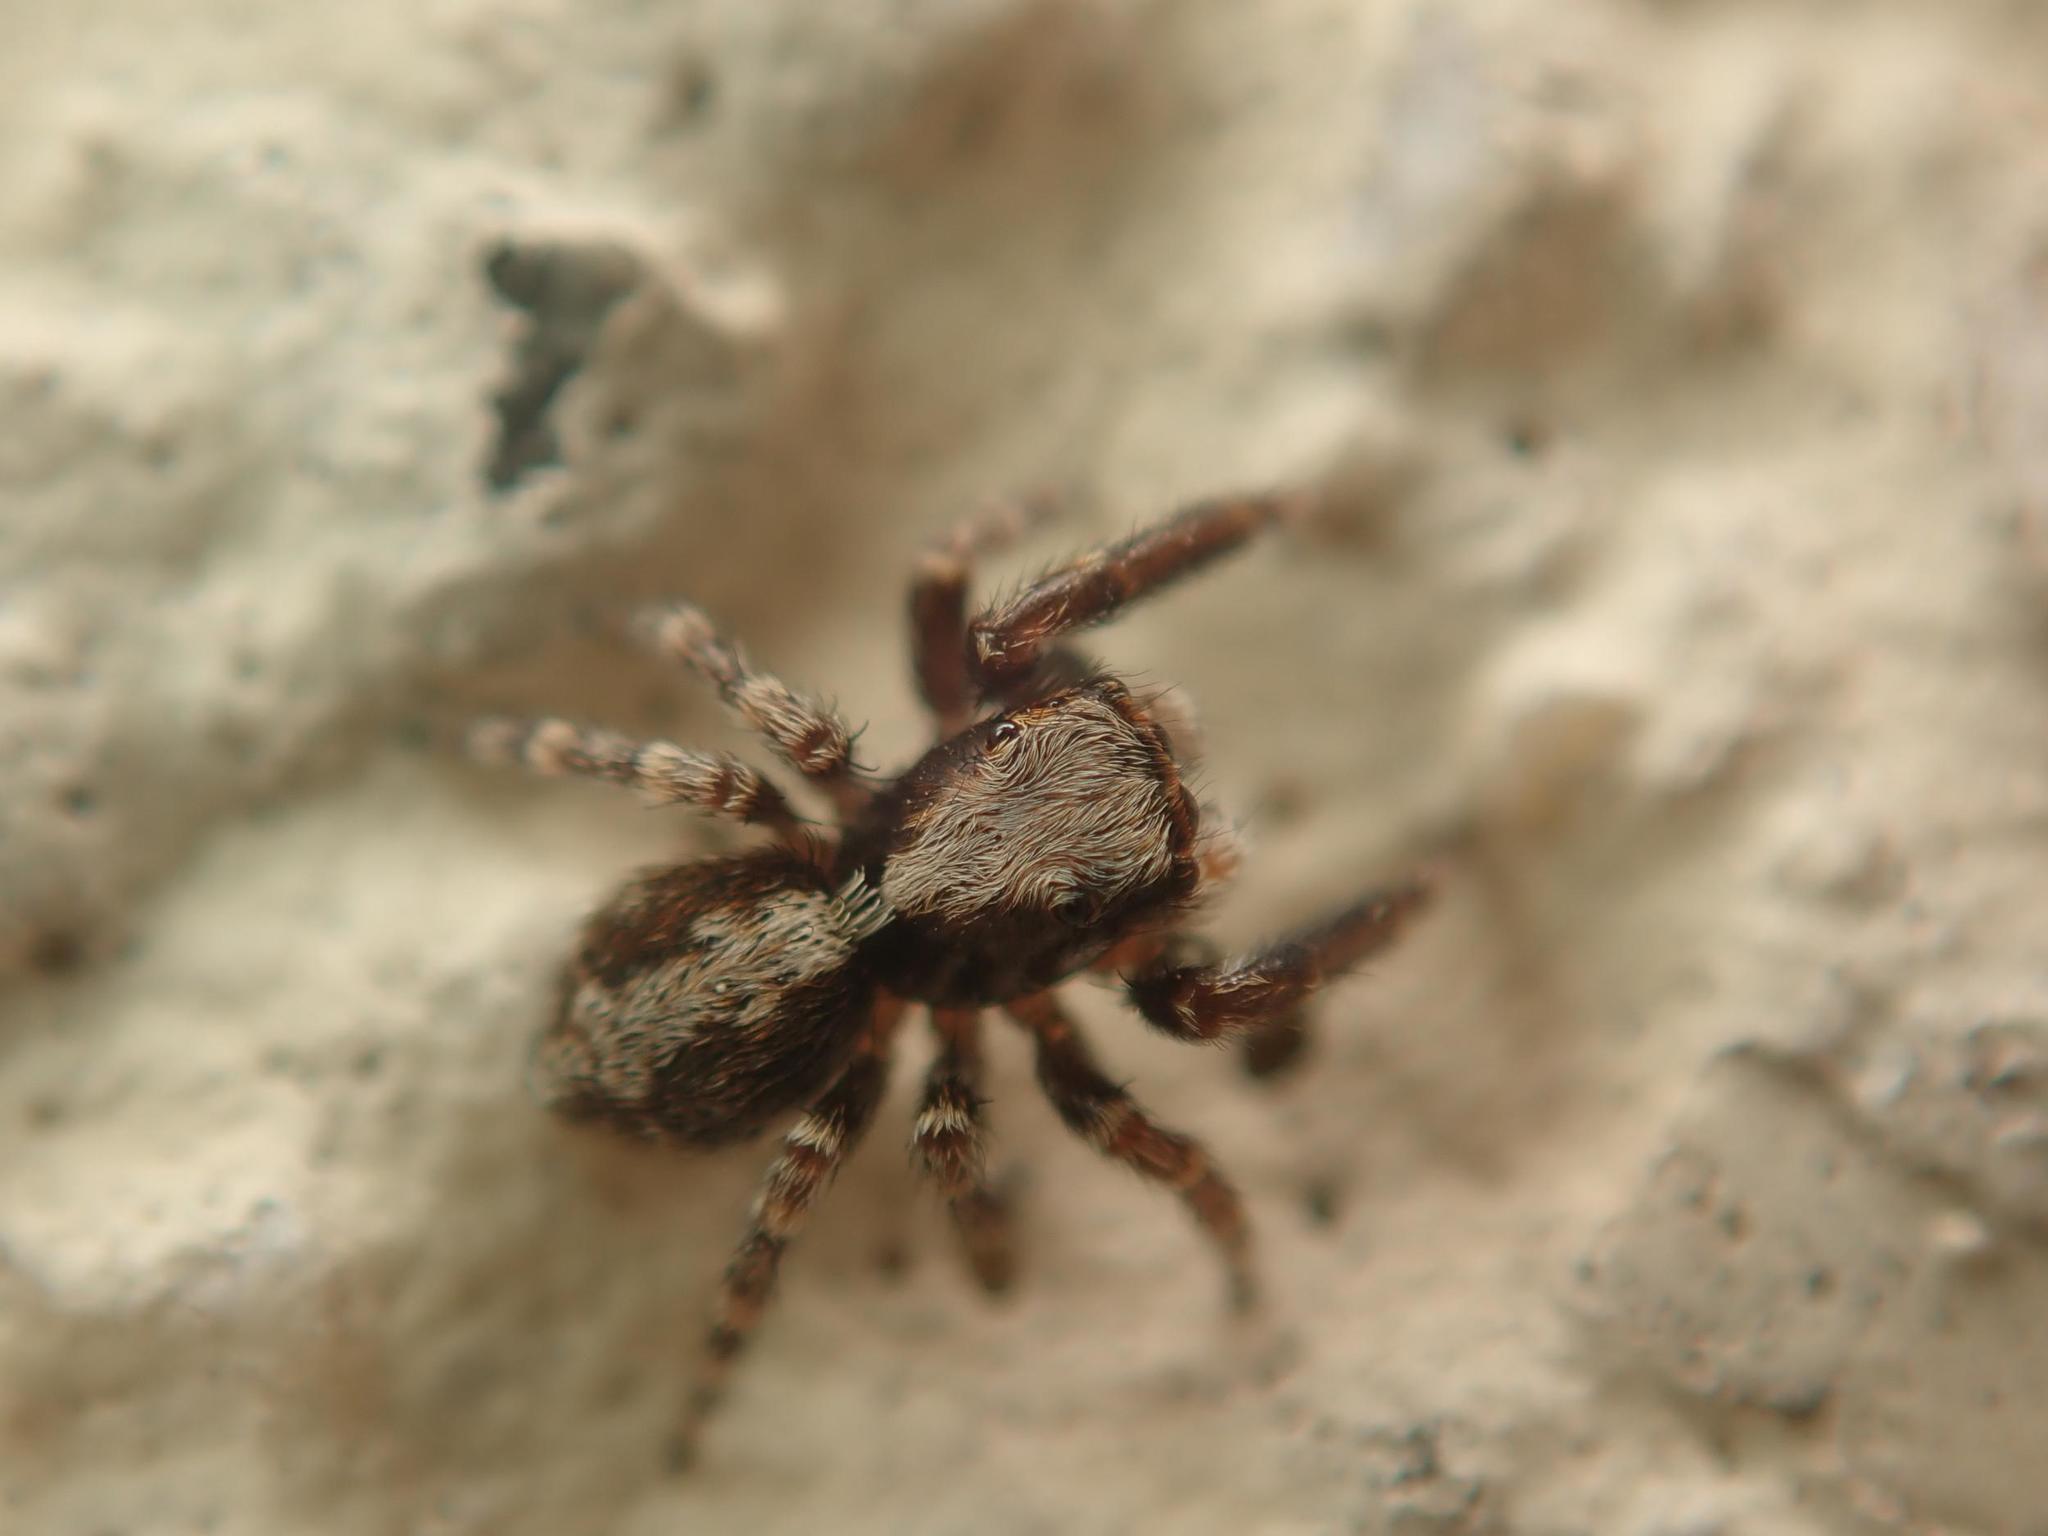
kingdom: Animalia
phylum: Arthropoda
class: Arachnida
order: Araneae
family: Salticidae
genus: Pseudeuophrys
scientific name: Pseudeuophrys lanigera
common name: Jumping spider
